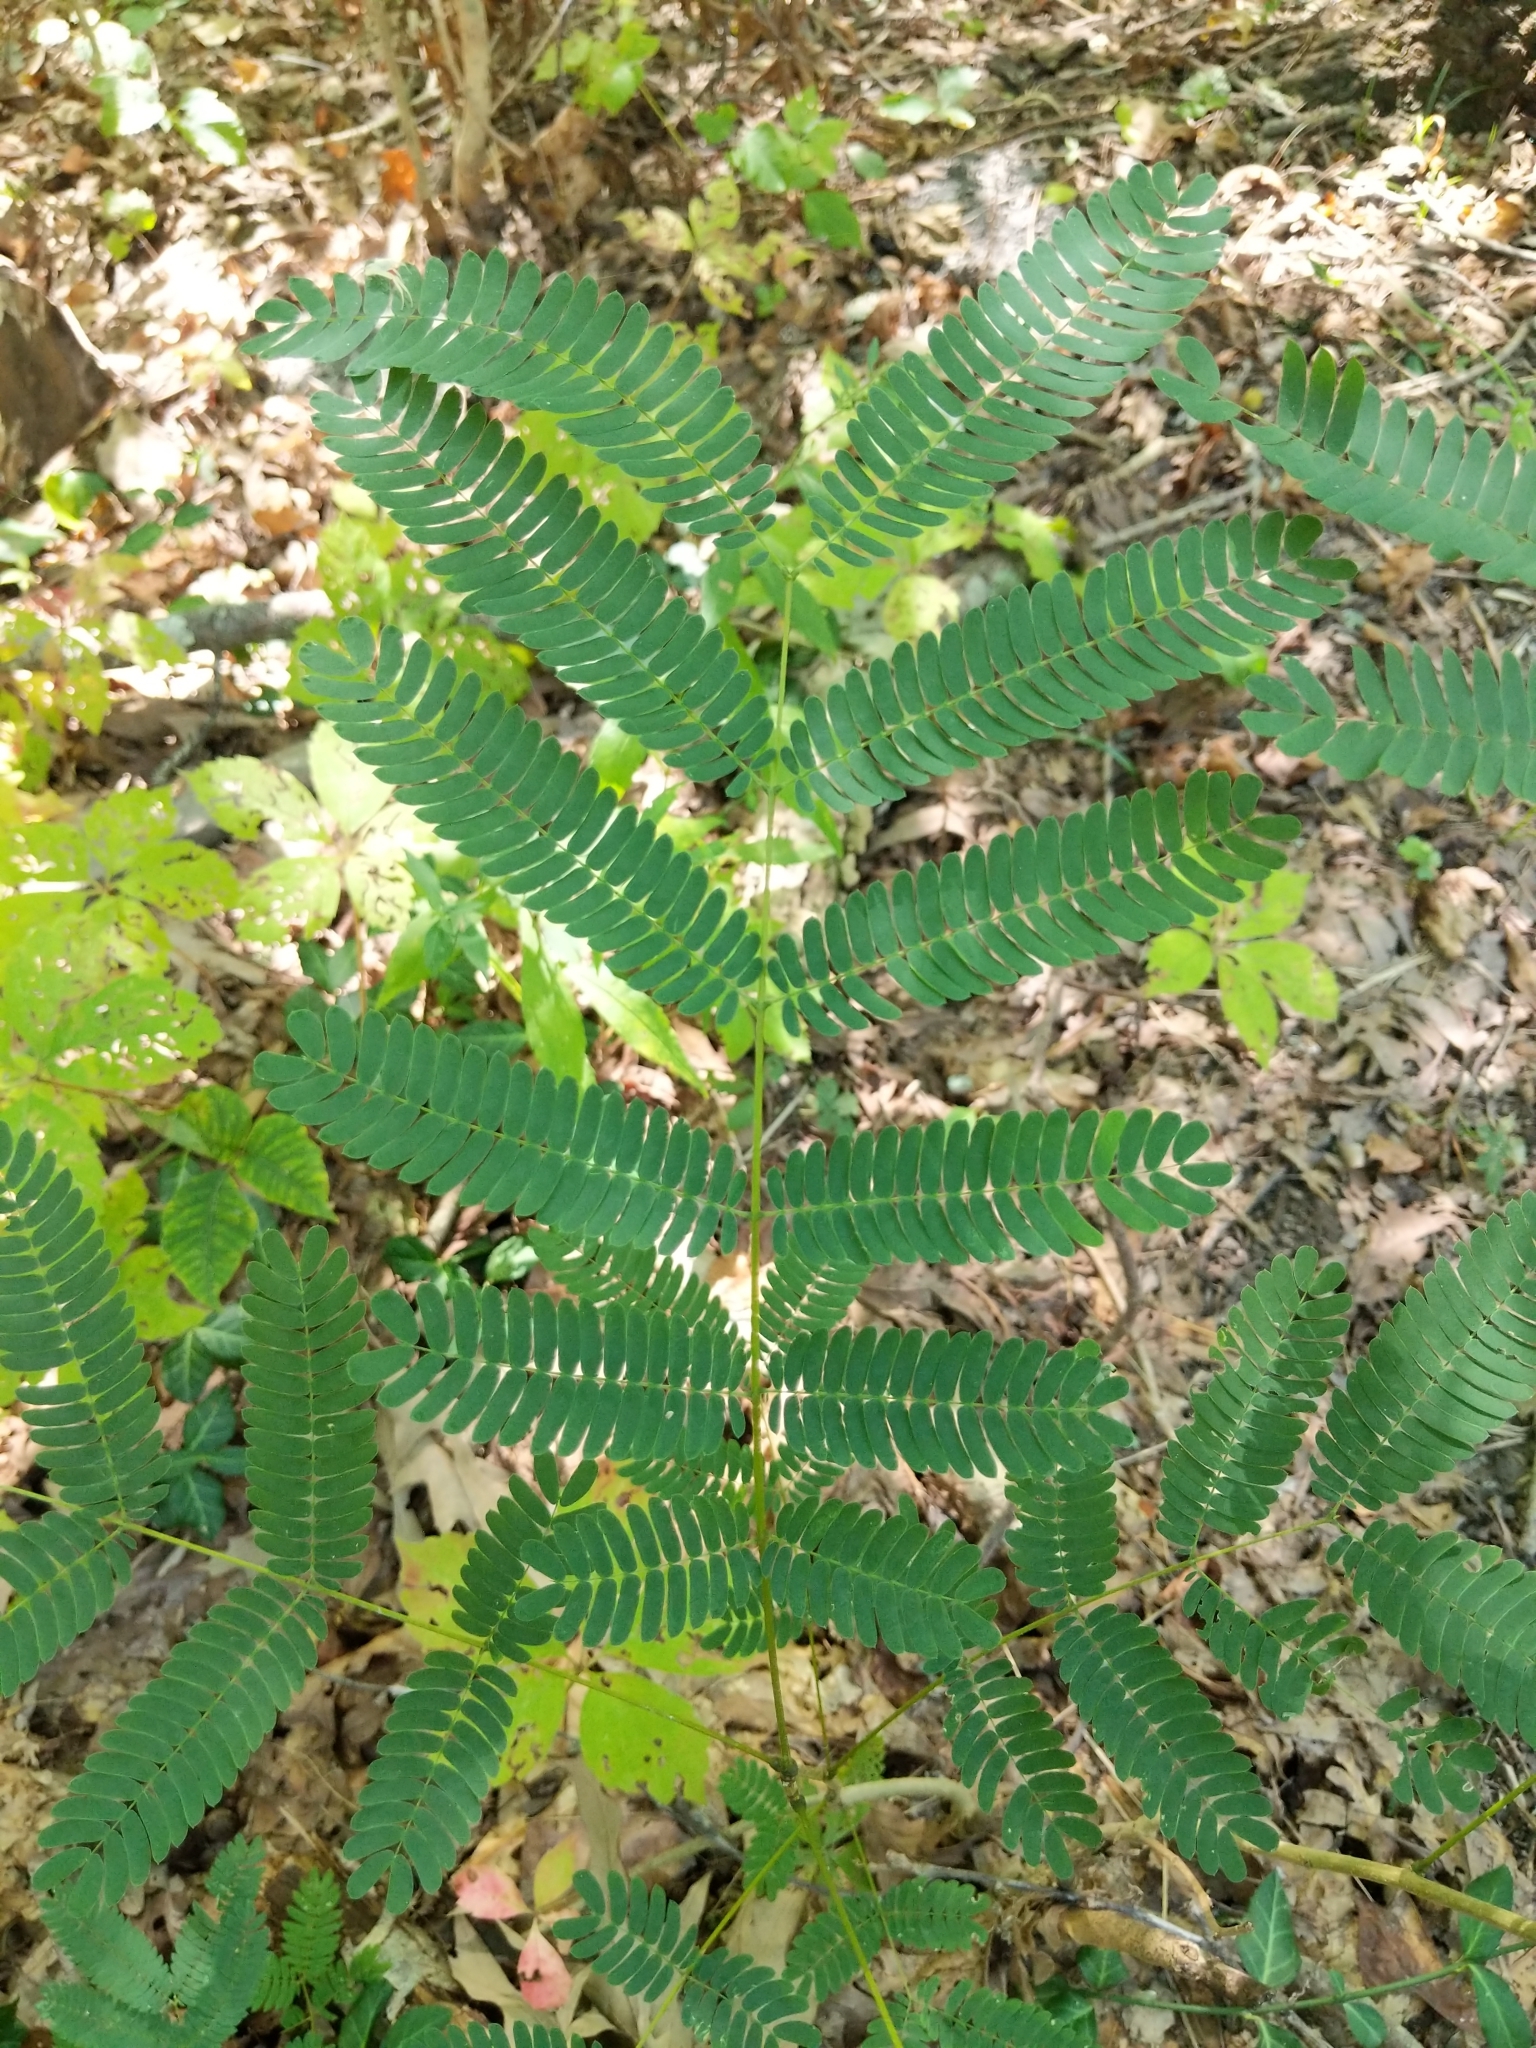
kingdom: Plantae
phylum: Tracheophyta
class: Magnoliopsida
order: Fabales
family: Fabaceae
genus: Albizia
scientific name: Albizia julibrissin
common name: Silktree
